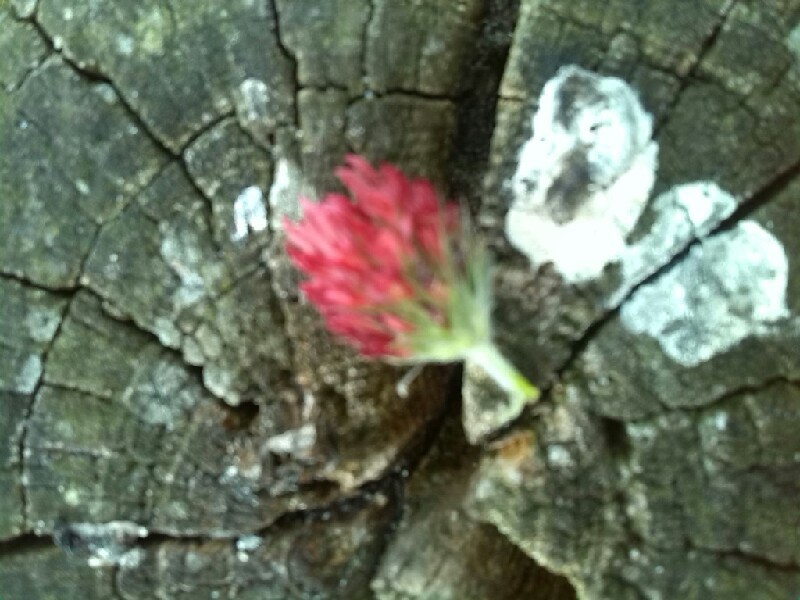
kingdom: Plantae
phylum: Tracheophyta
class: Magnoliopsida
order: Fabales
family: Fabaceae
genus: Trifolium
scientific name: Trifolium incarnatum
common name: Crimson clover
